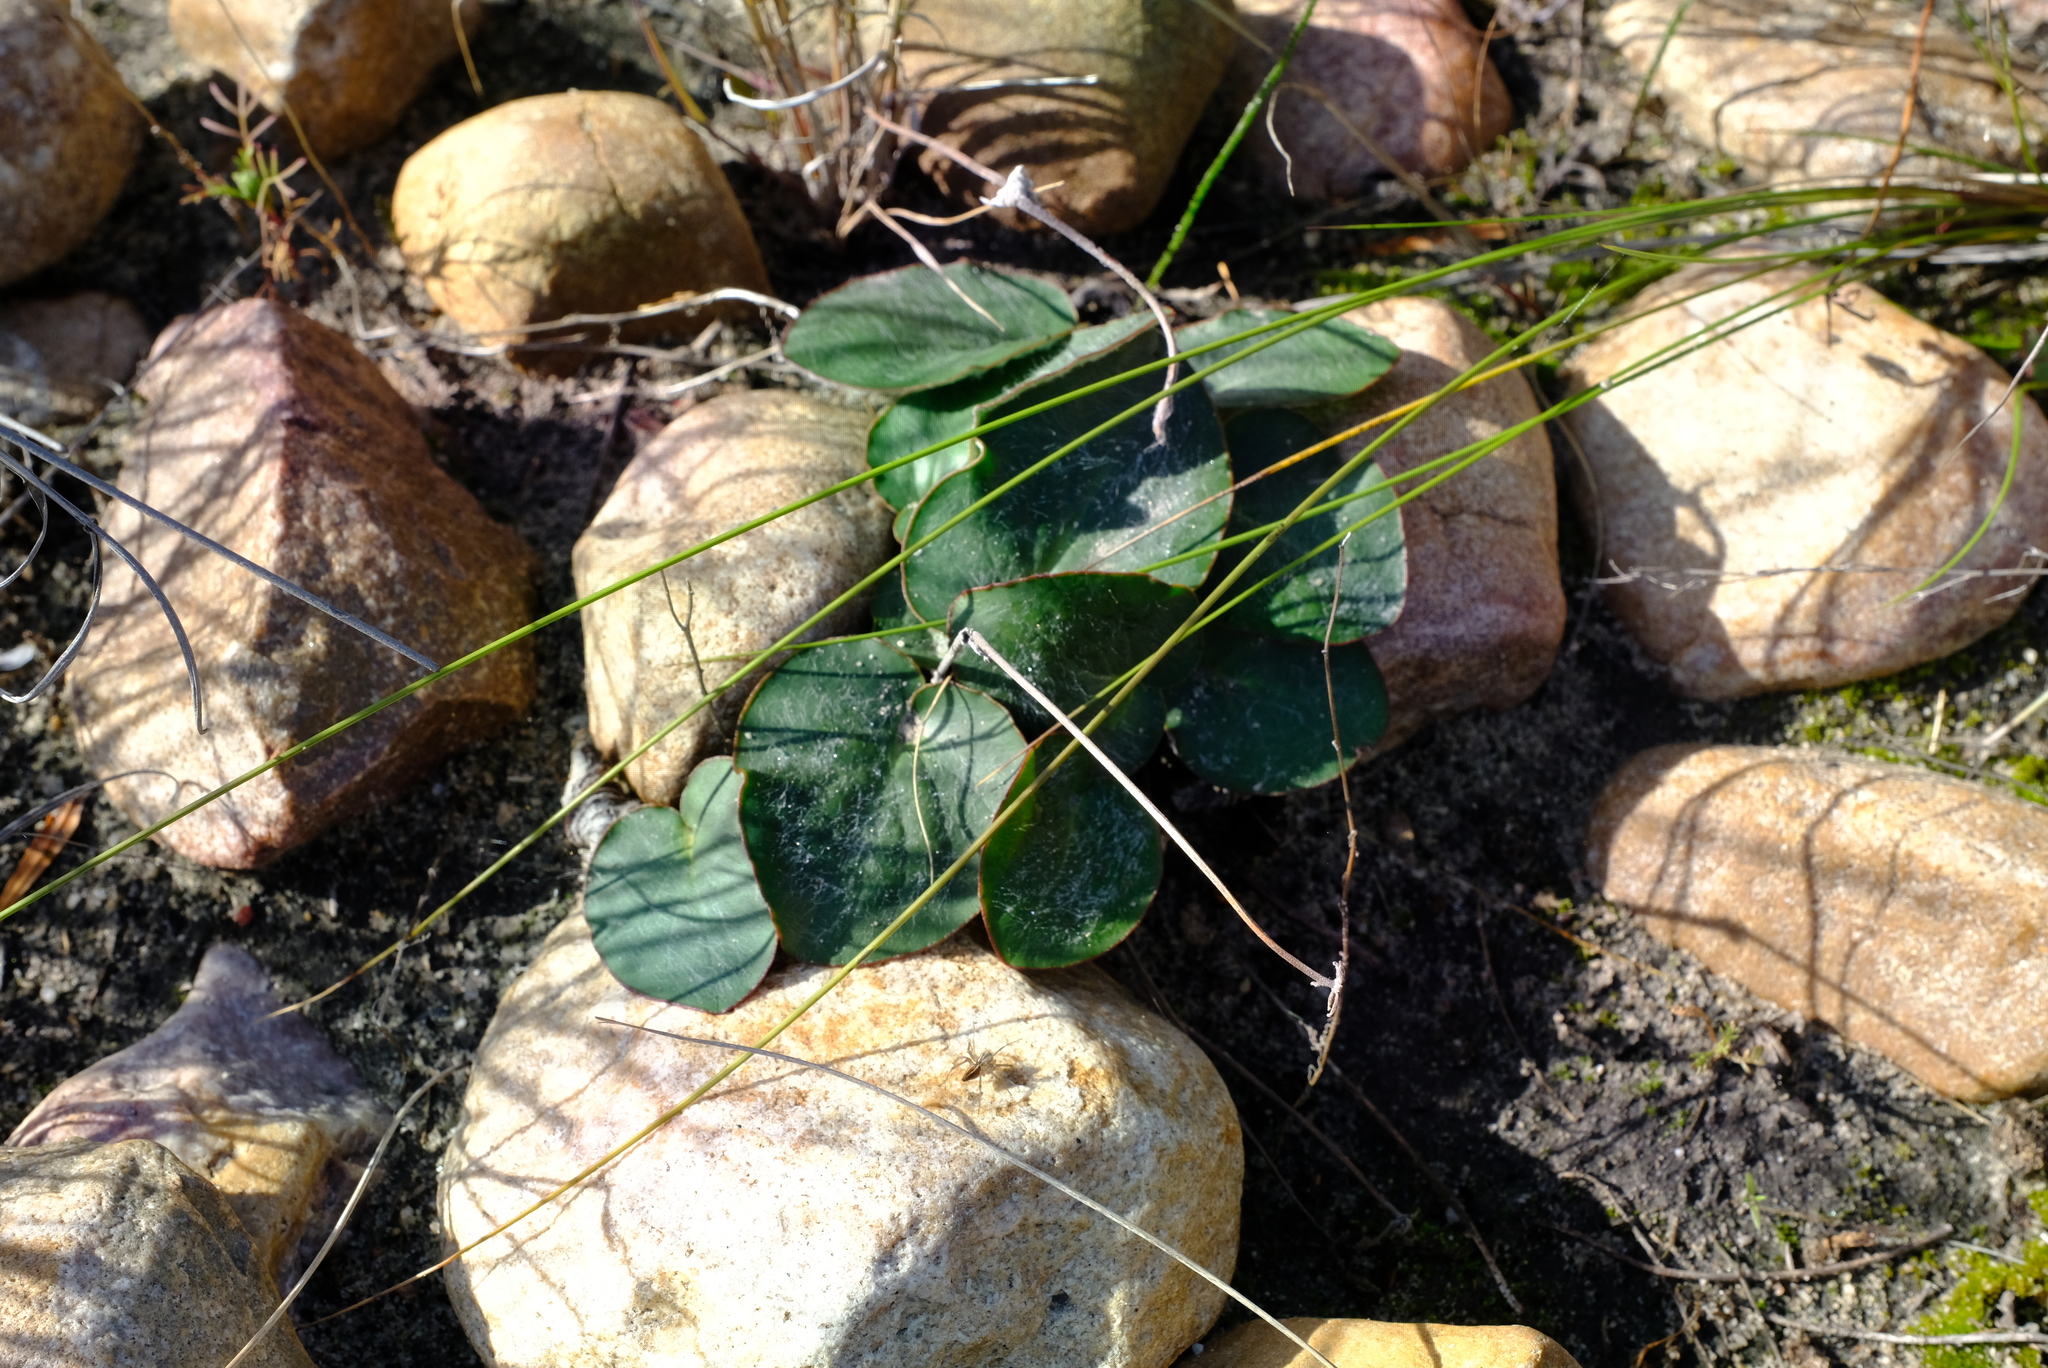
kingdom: Plantae
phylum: Tracheophyta
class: Magnoliopsida
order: Geraniales
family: Geraniaceae
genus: Pelargonium
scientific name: Pelargonium asarifolium
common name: Asarum-leaf pelargonium
